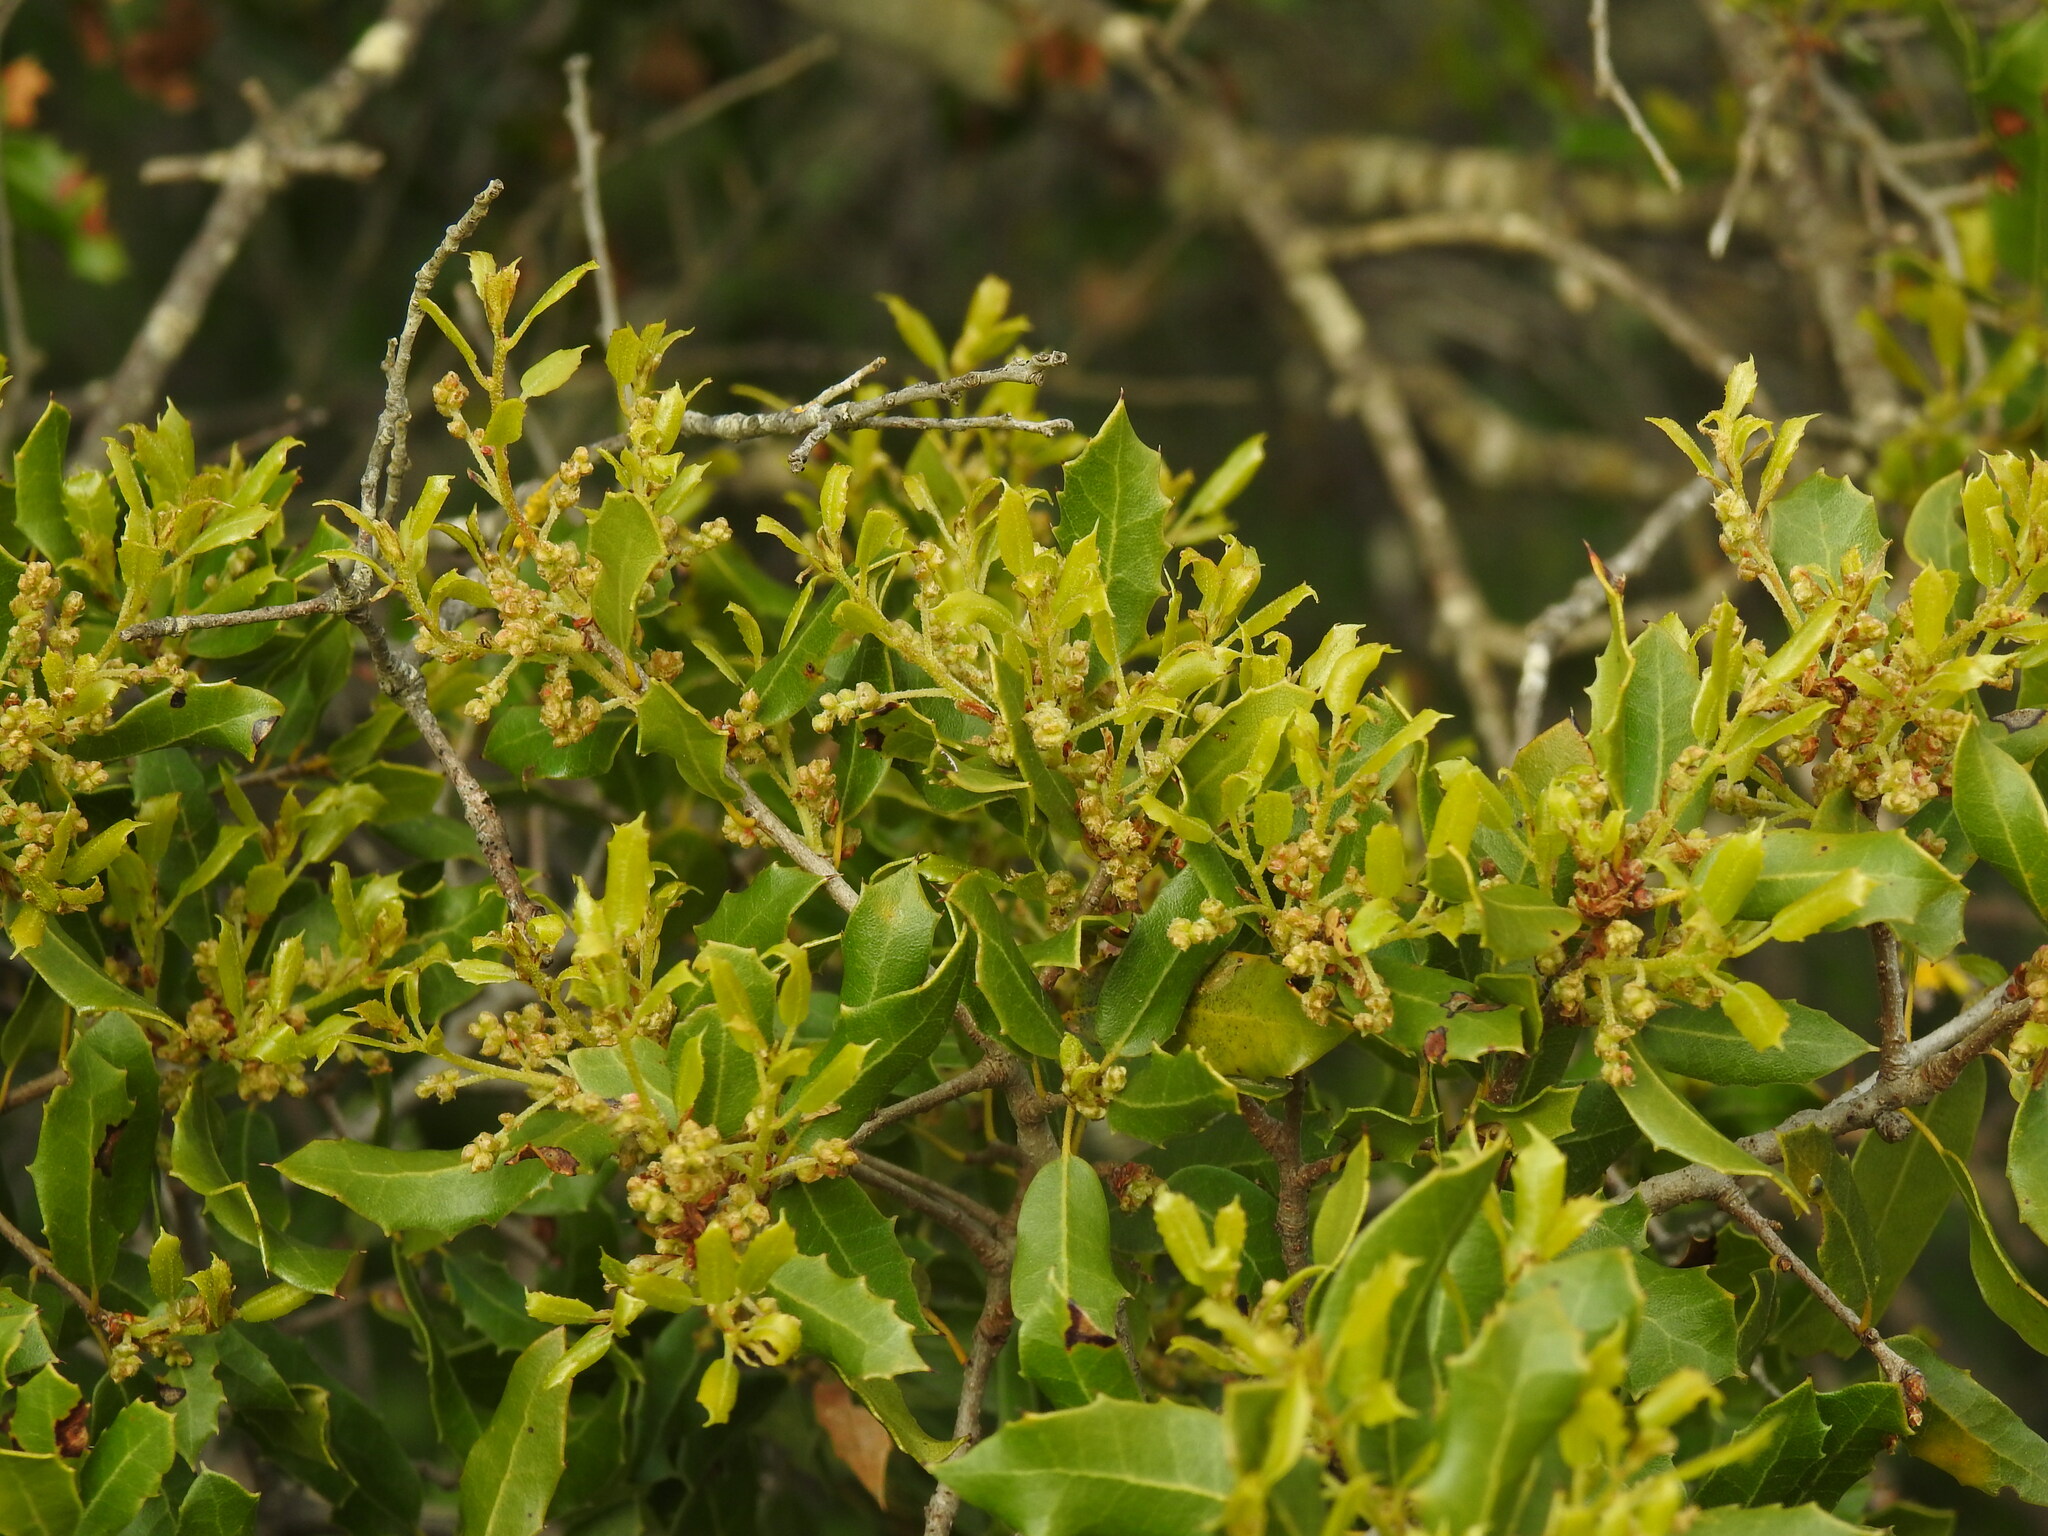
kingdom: Plantae
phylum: Tracheophyta
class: Magnoliopsida
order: Fagales
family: Fagaceae
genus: Quercus
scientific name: Quercus coccifera
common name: Kermes oak
